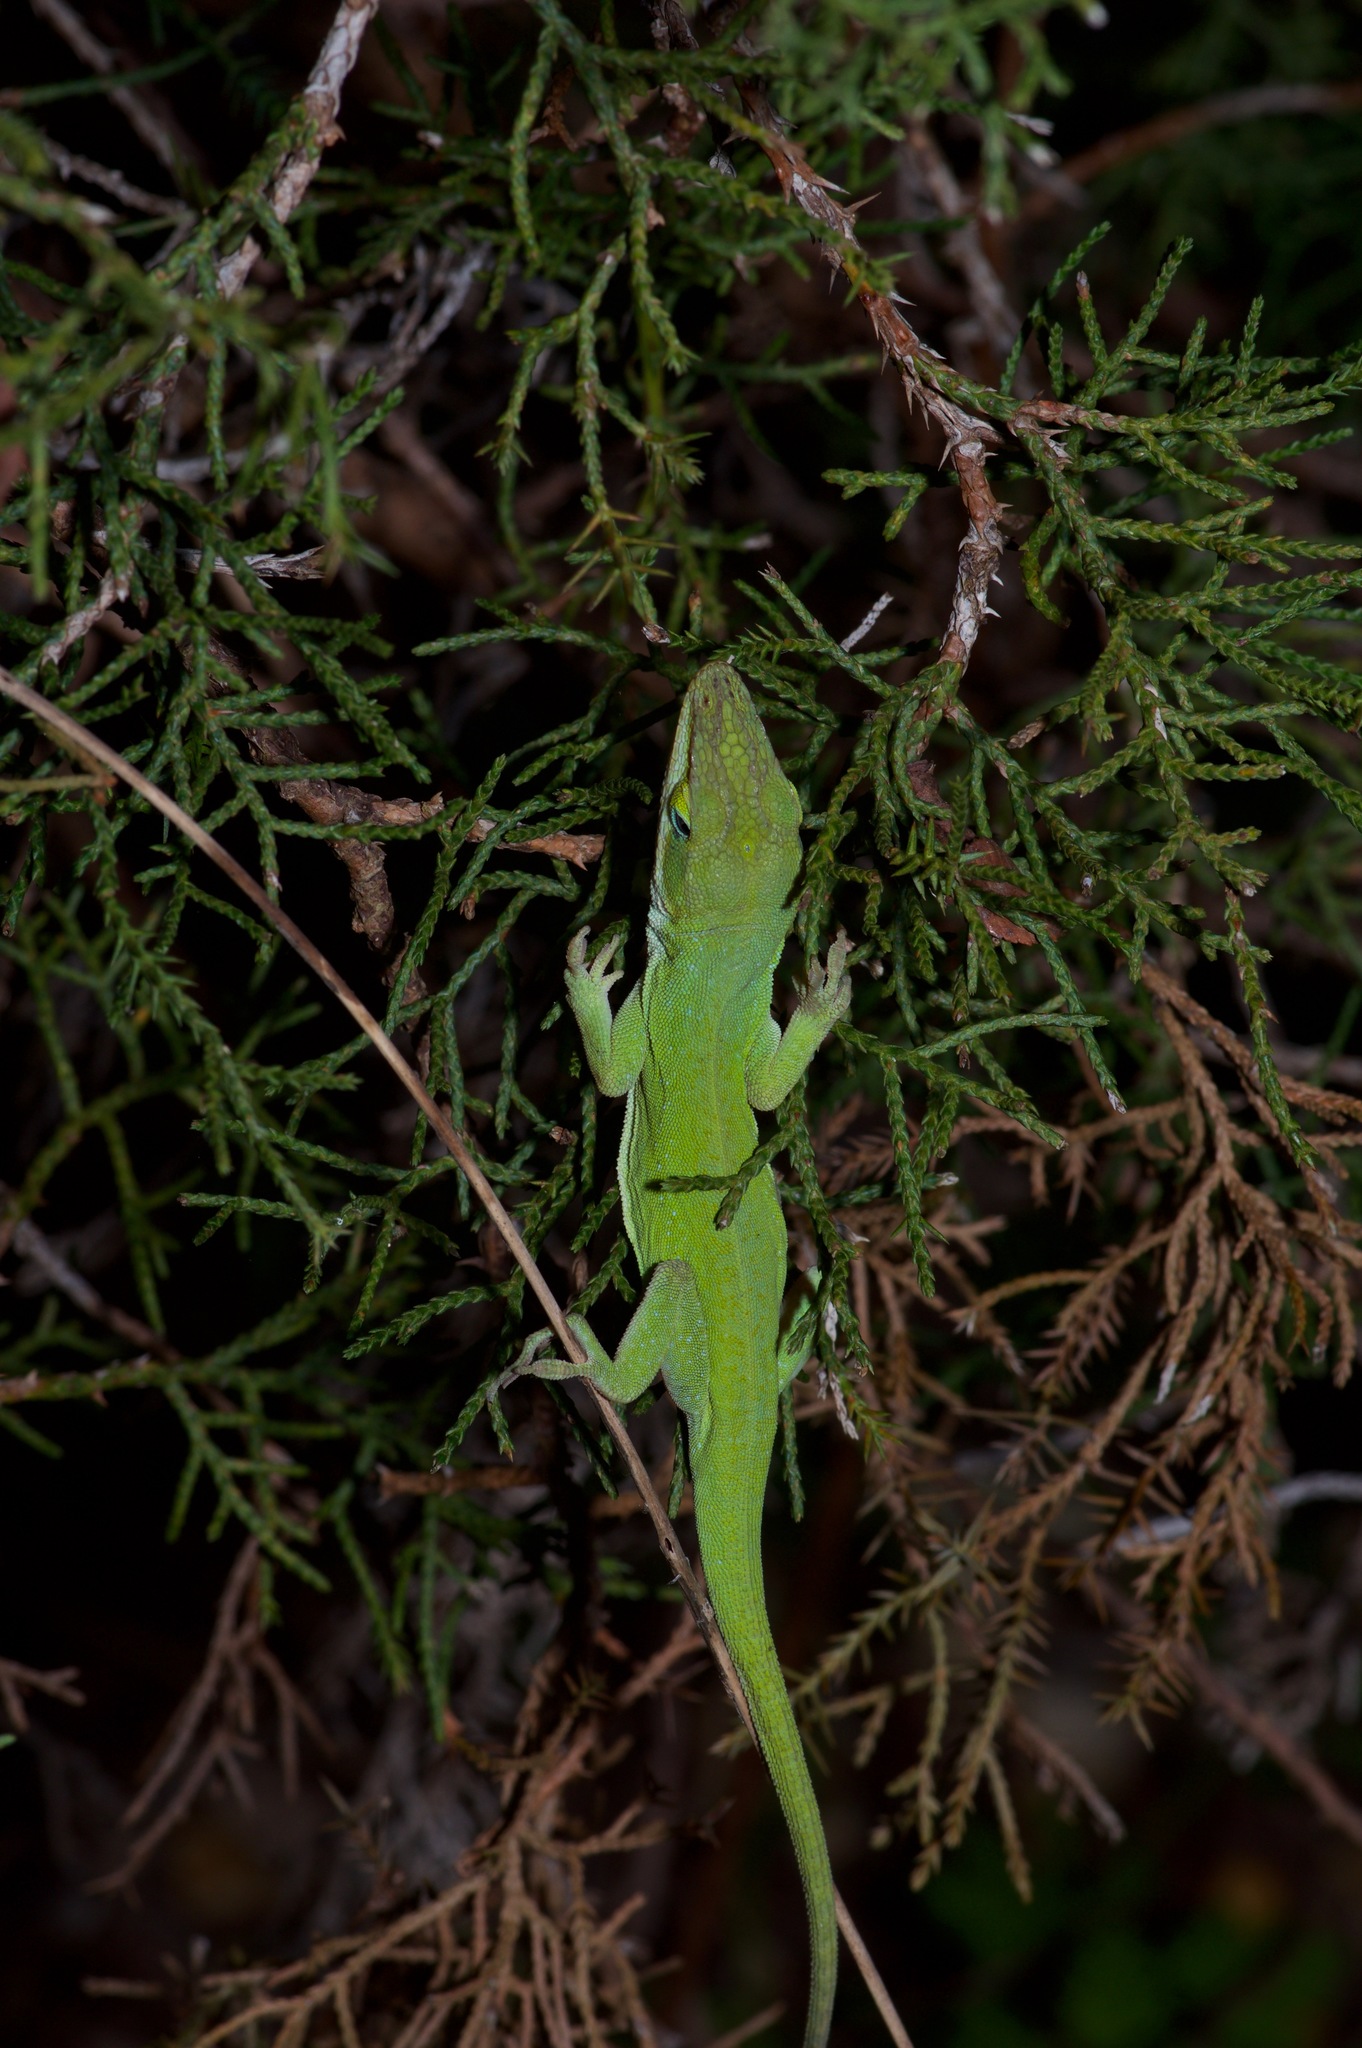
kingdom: Animalia
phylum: Chordata
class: Squamata
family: Dactyloidae
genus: Anolis
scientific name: Anolis carolinensis
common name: Green anole
